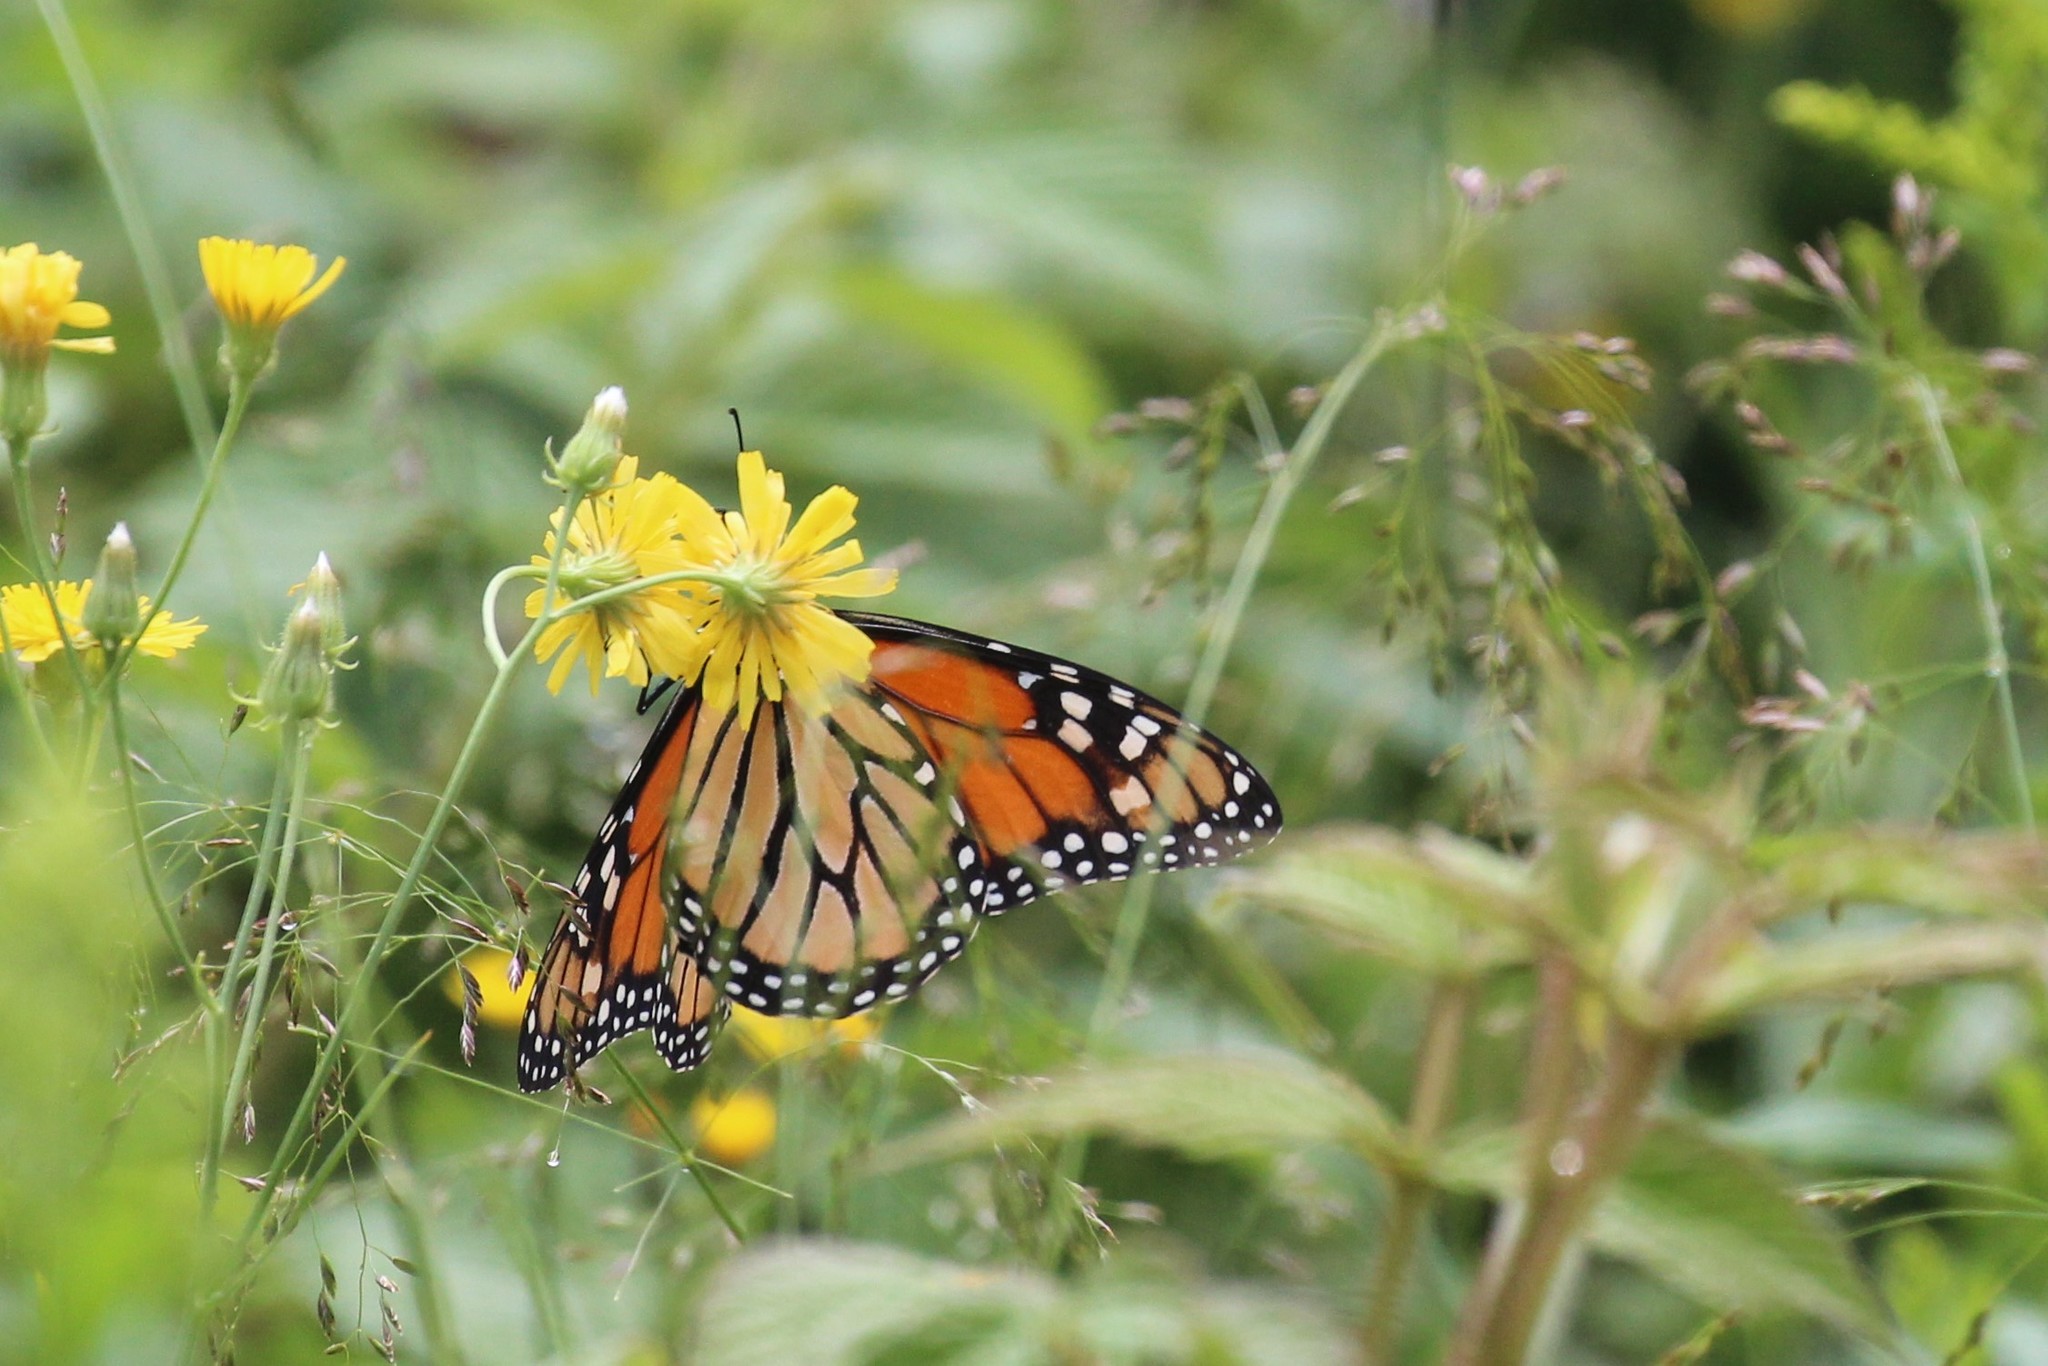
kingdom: Animalia
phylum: Arthropoda
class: Insecta
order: Lepidoptera
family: Nymphalidae
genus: Danaus
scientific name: Danaus plexippus
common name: Monarch
